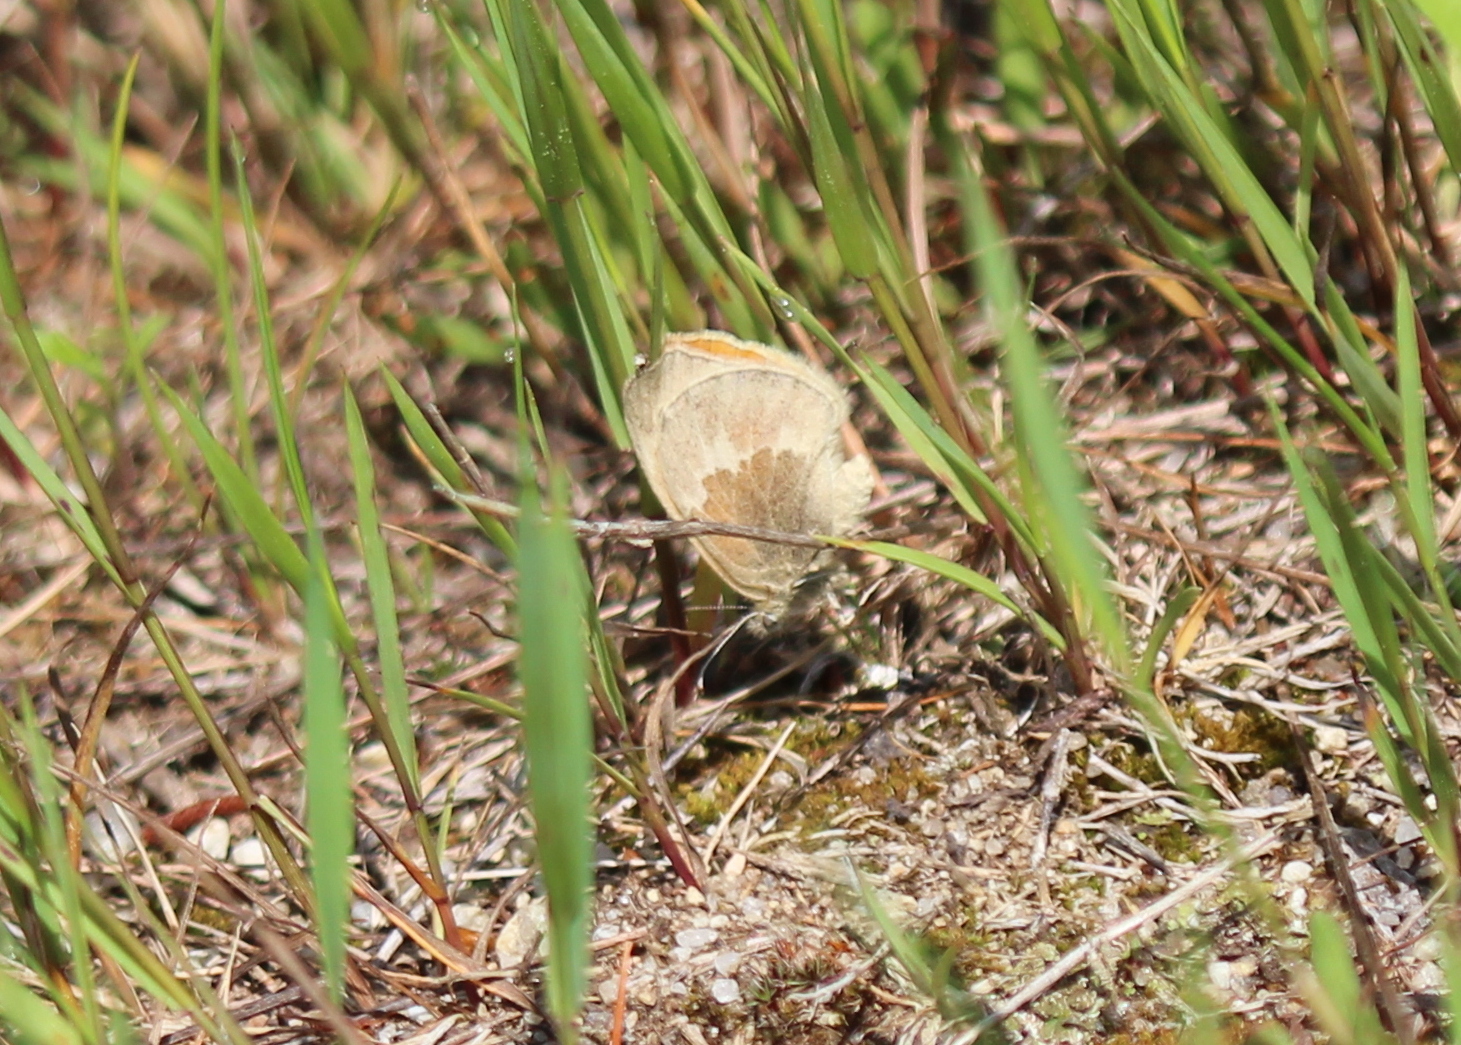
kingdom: Animalia
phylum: Arthropoda
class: Insecta
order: Lepidoptera
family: Nymphalidae
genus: Coenonympha
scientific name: Coenonympha california
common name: Common ringlet
